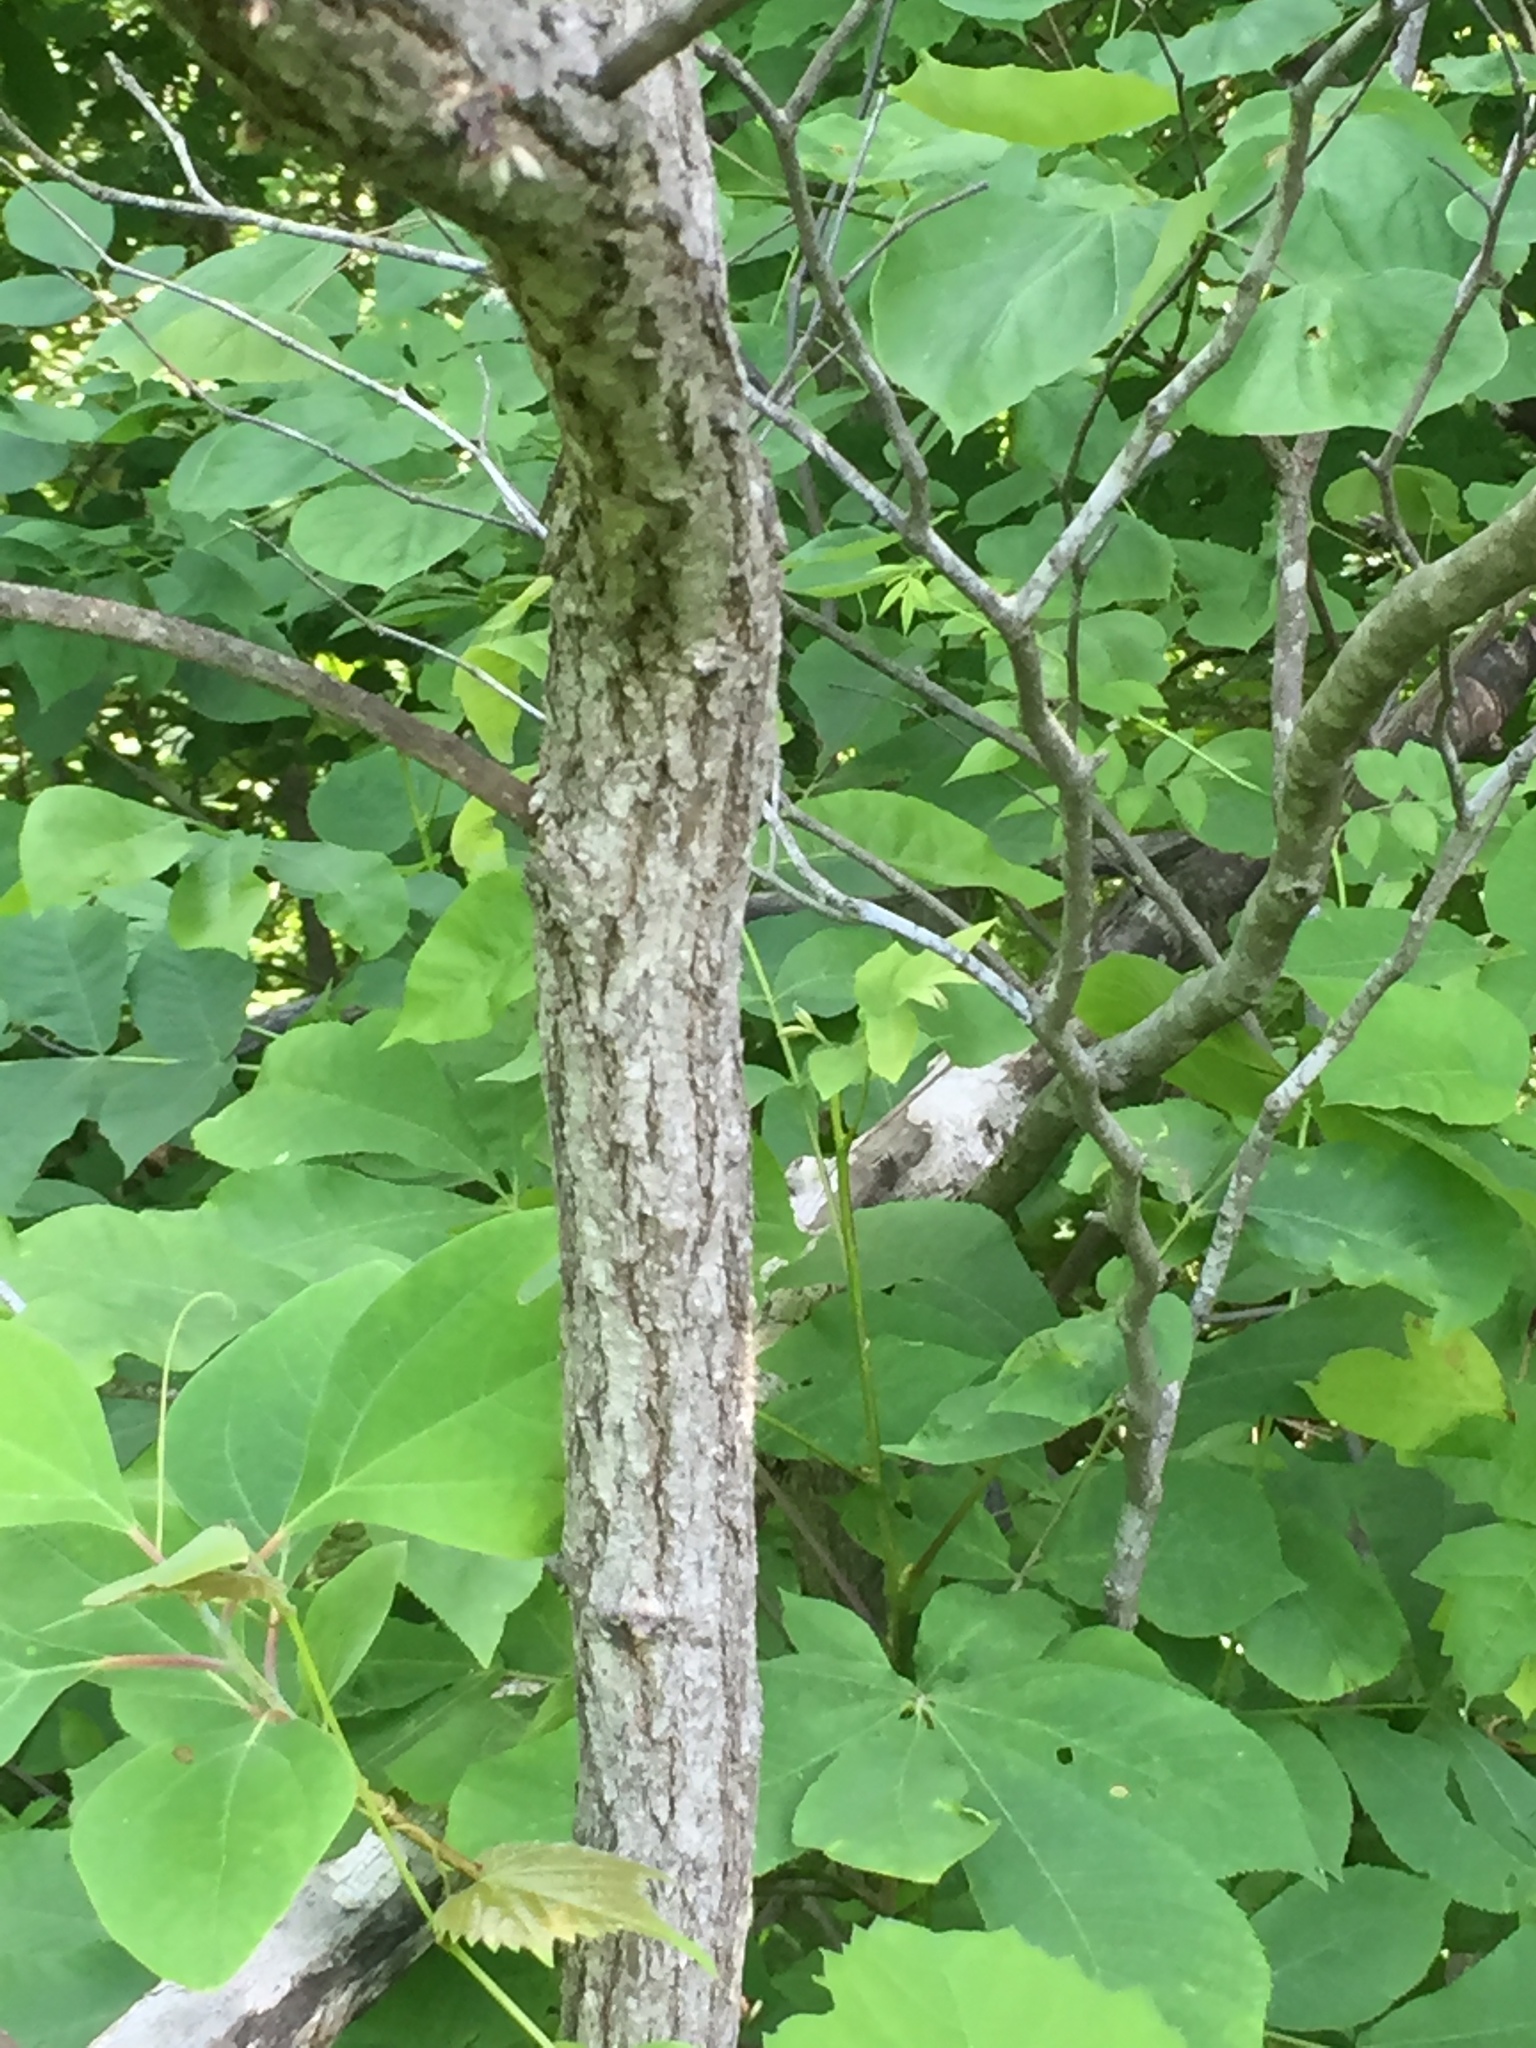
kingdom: Plantae
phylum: Tracheophyta
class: Magnoliopsida
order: Laurales
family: Lauraceae
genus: Sassafras
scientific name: Sassafras albidum
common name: Sassafras
